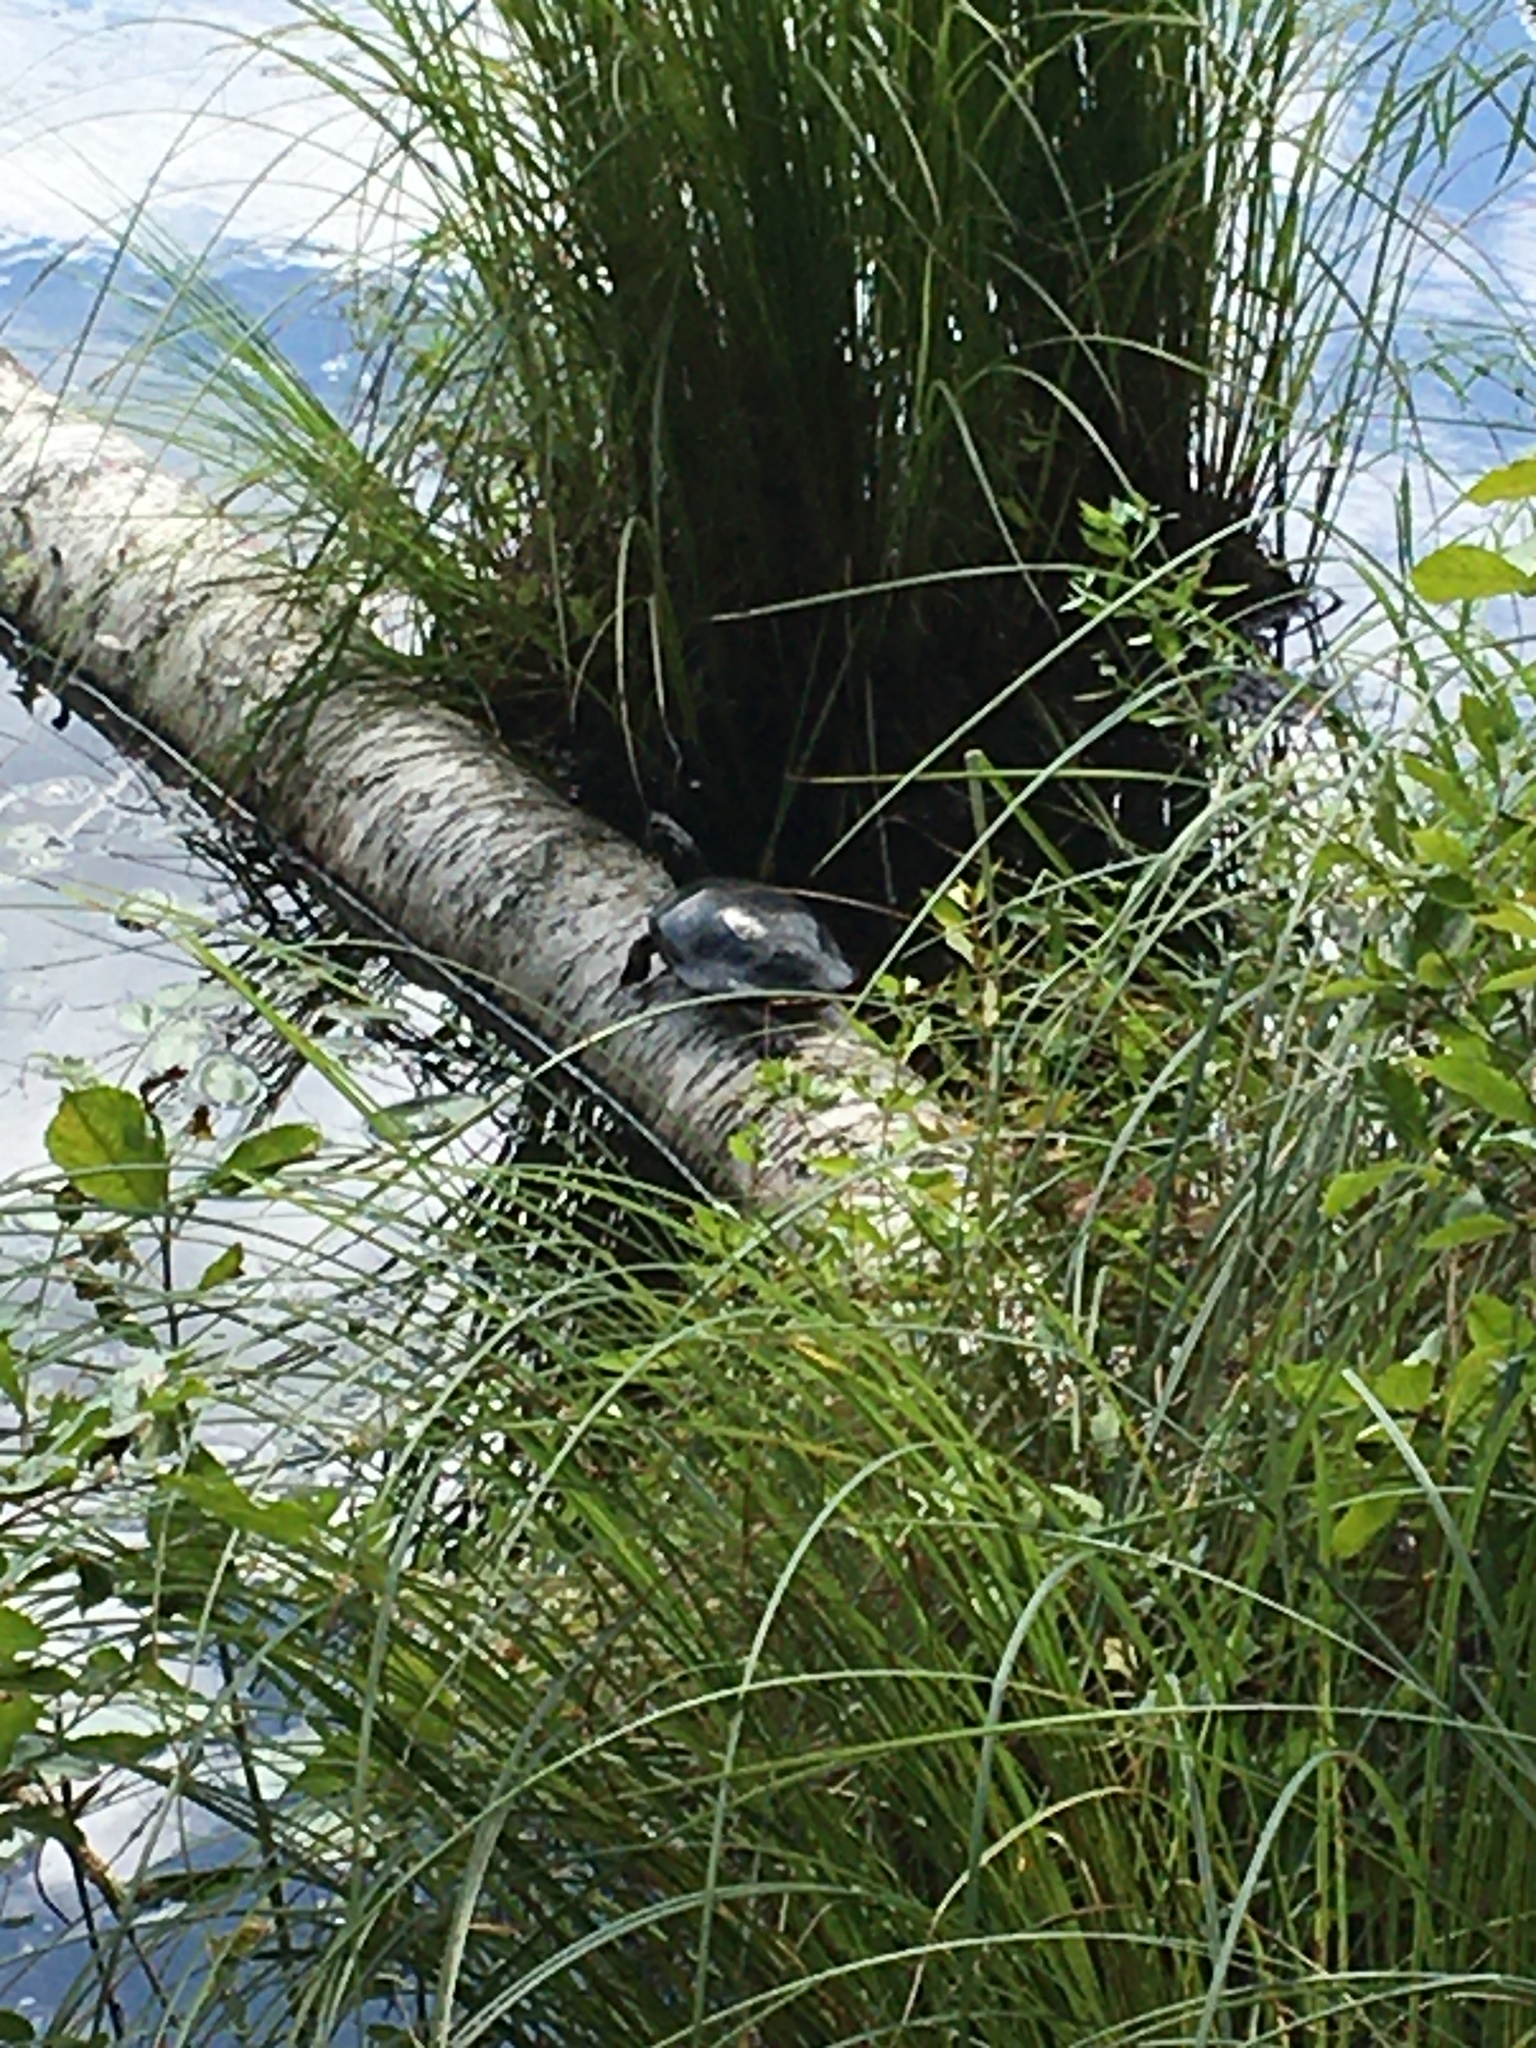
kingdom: Animalia
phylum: Chordata
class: Testudines
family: Emydidae
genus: Chrysemys
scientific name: Chrysemys picta
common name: Painted turtle
